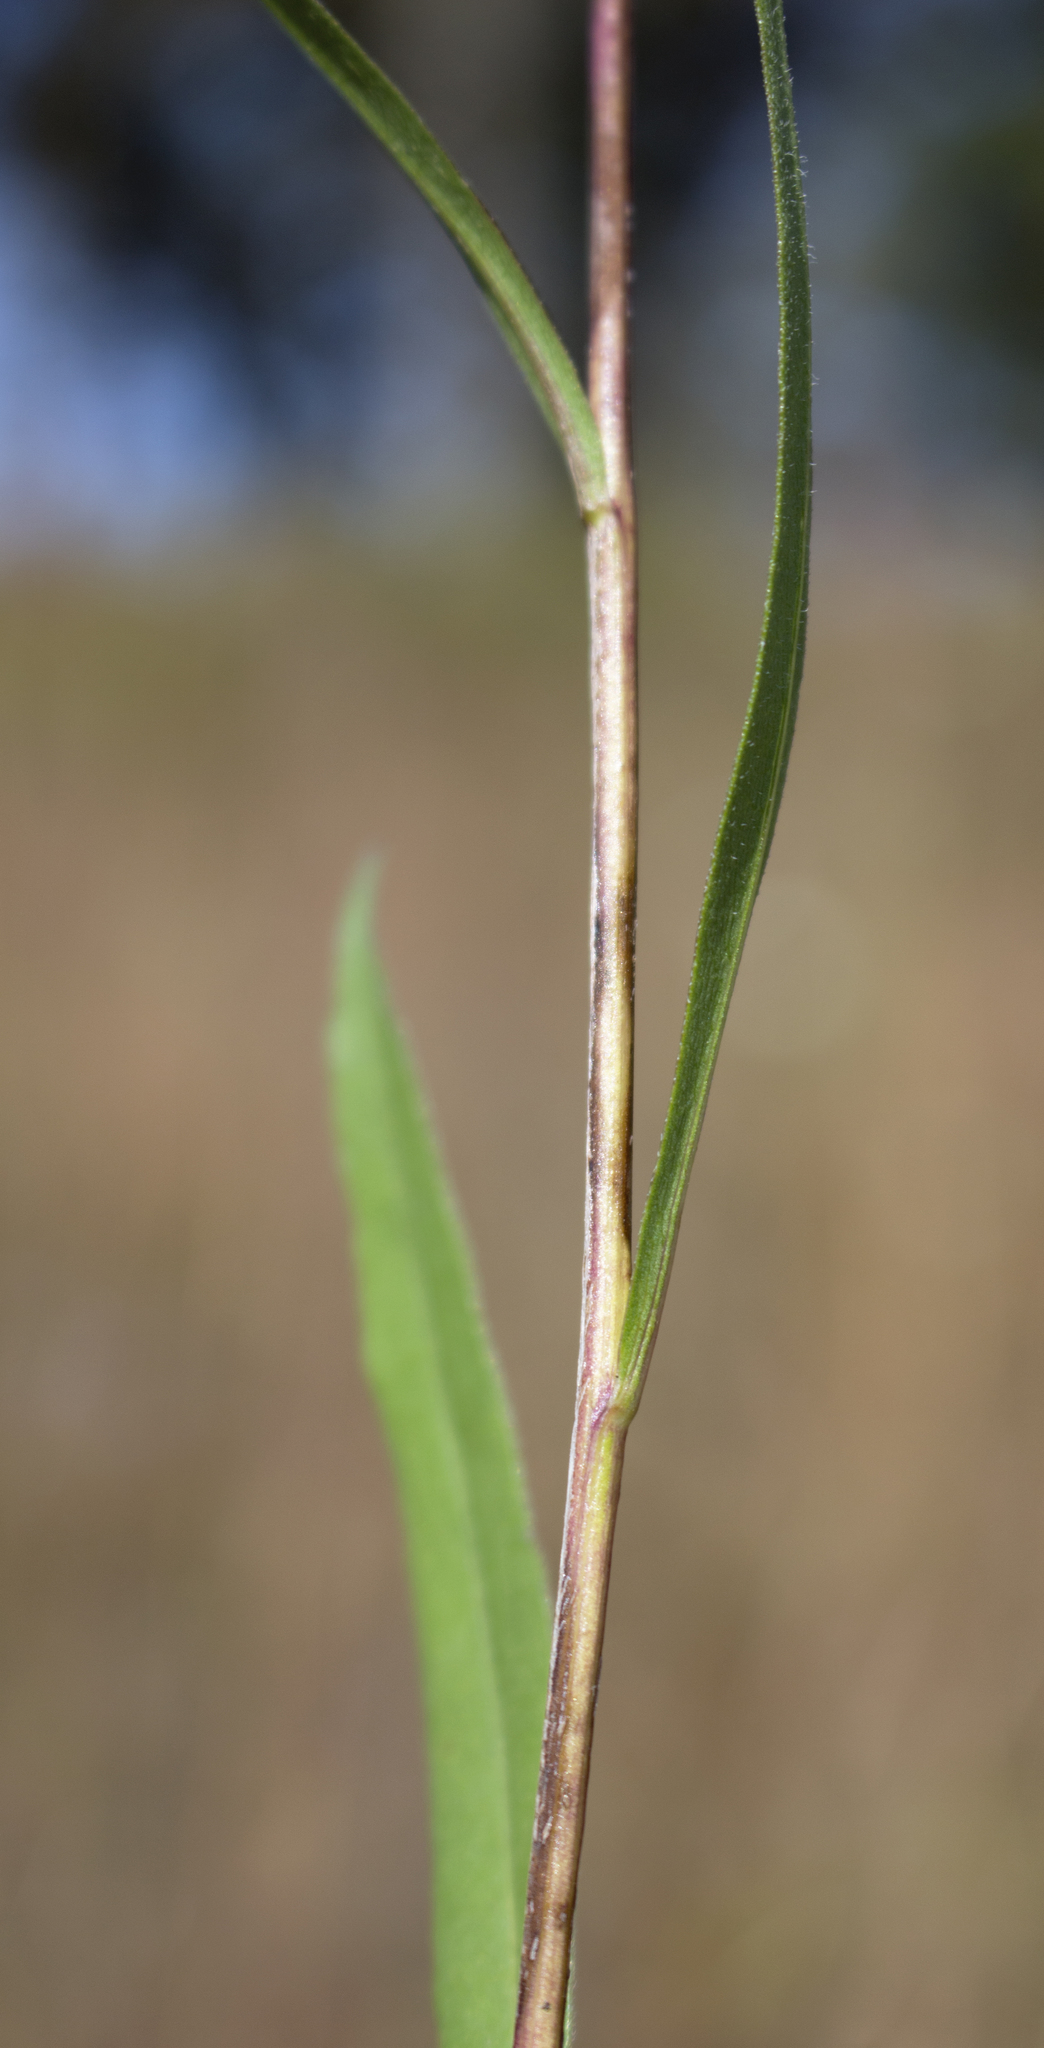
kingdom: Plantae
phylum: Tracheophyta
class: Magnoliopsida
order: Asterales
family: Asteraceae
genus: Symphyotrichum
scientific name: Symphyotrichum oolentangiense
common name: Azure aster
